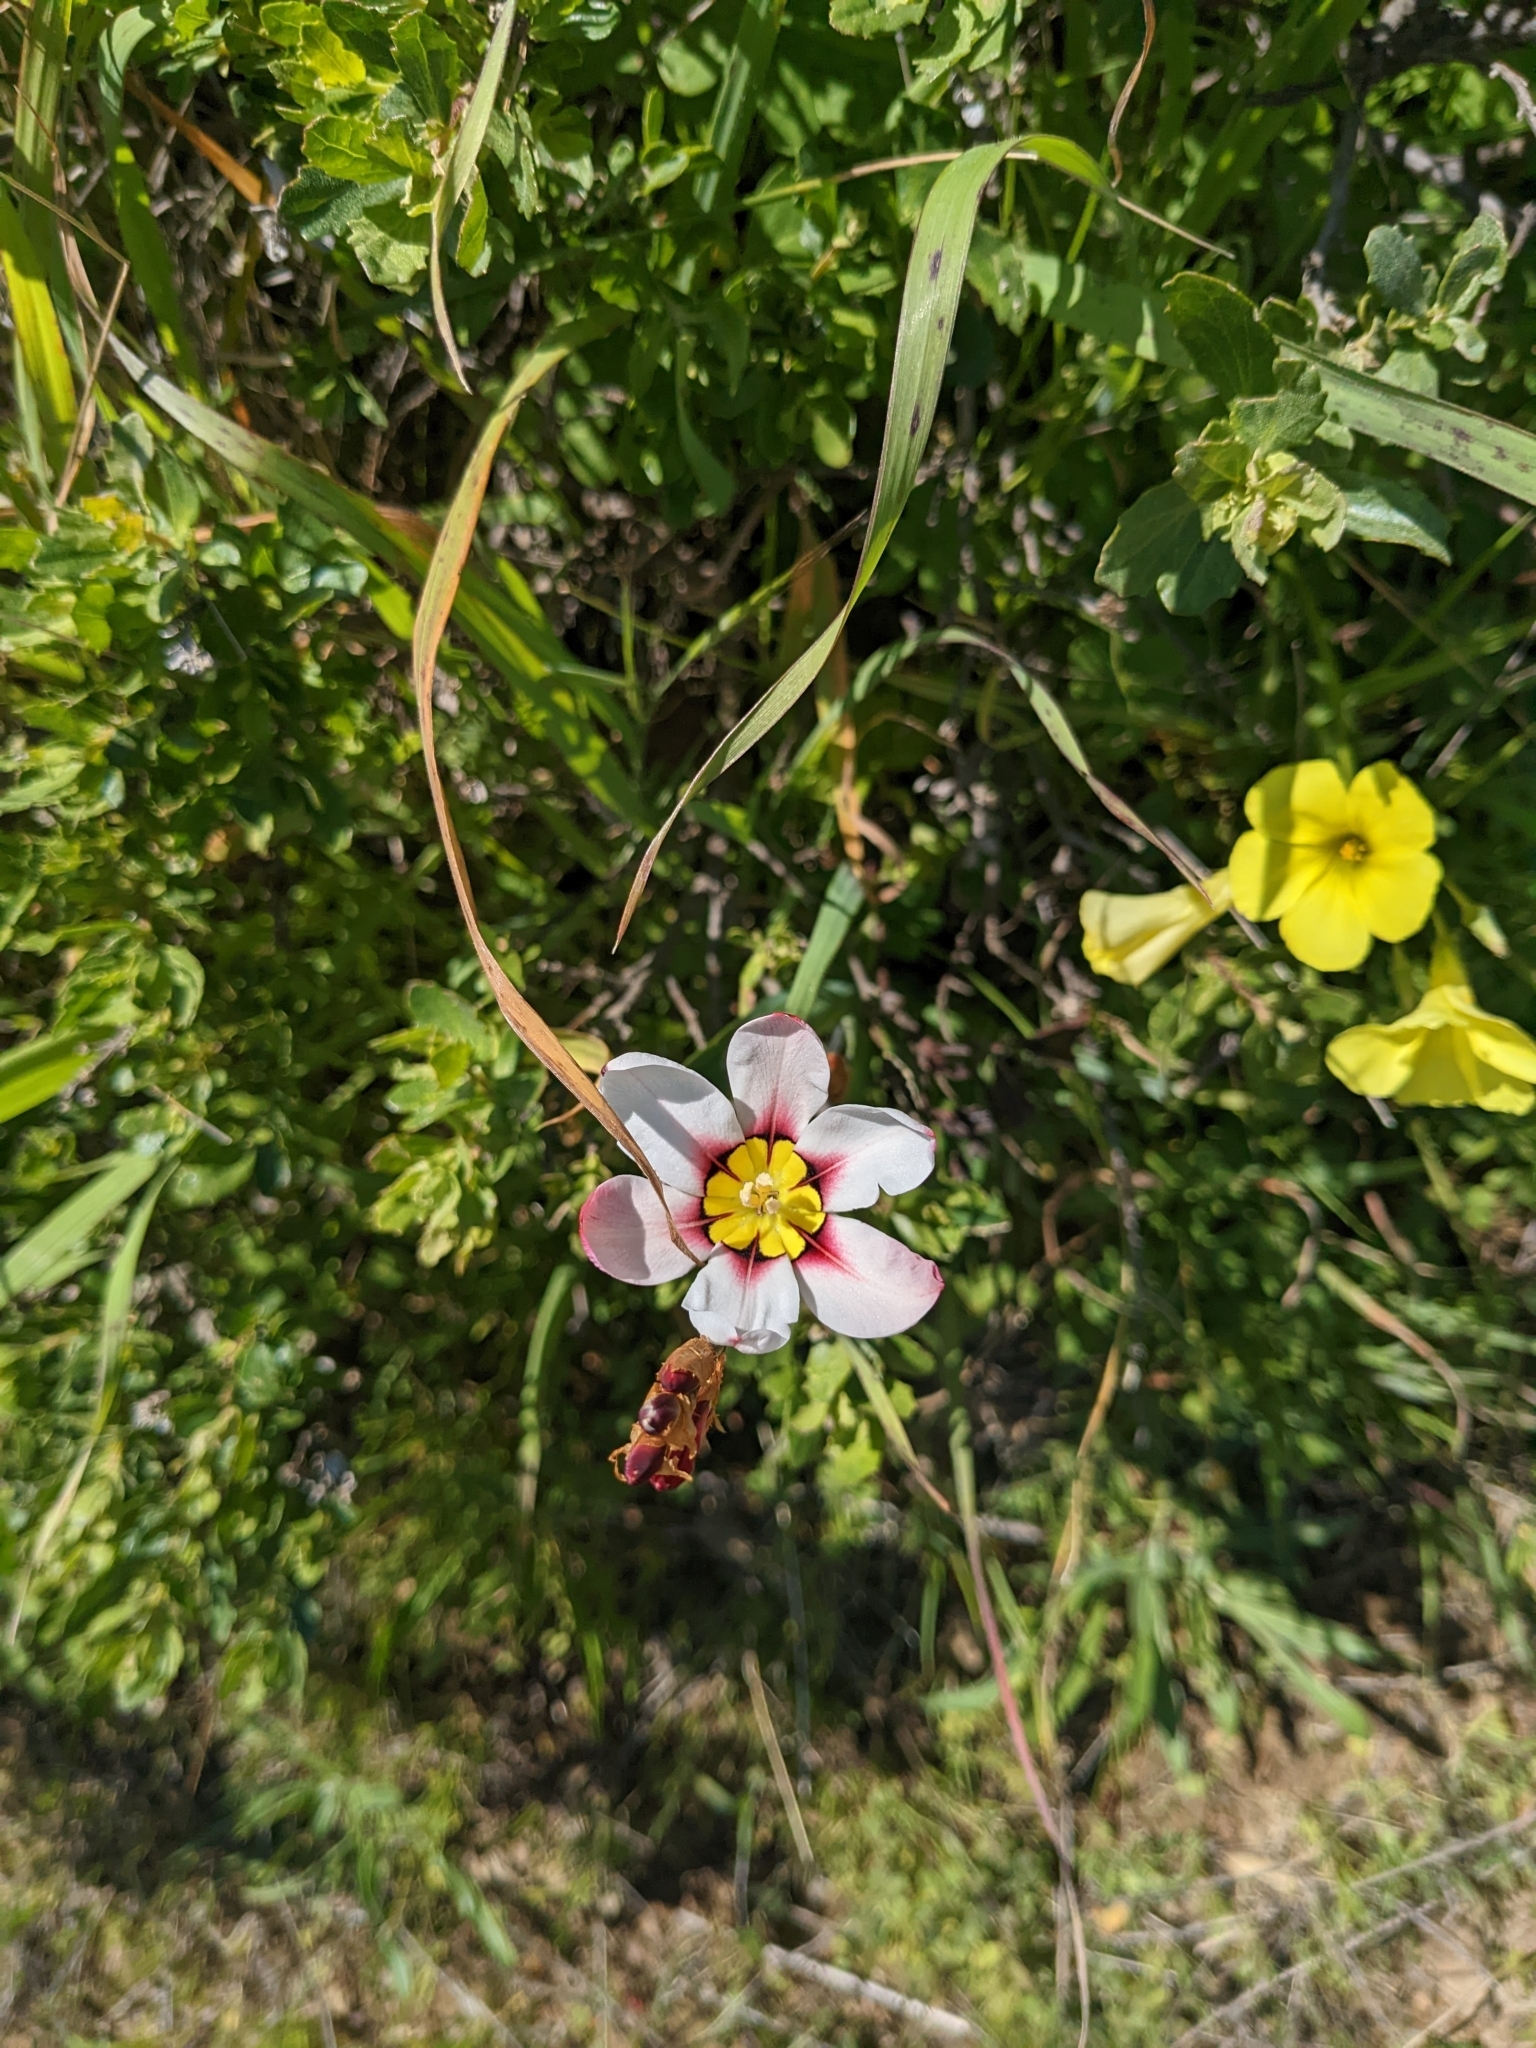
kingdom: Plantae
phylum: Tracheophyta
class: Liliopsida
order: Asparagales
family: Iridaceae
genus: Sparaxis
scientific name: Sparaxis tricolor
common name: Wandflower
